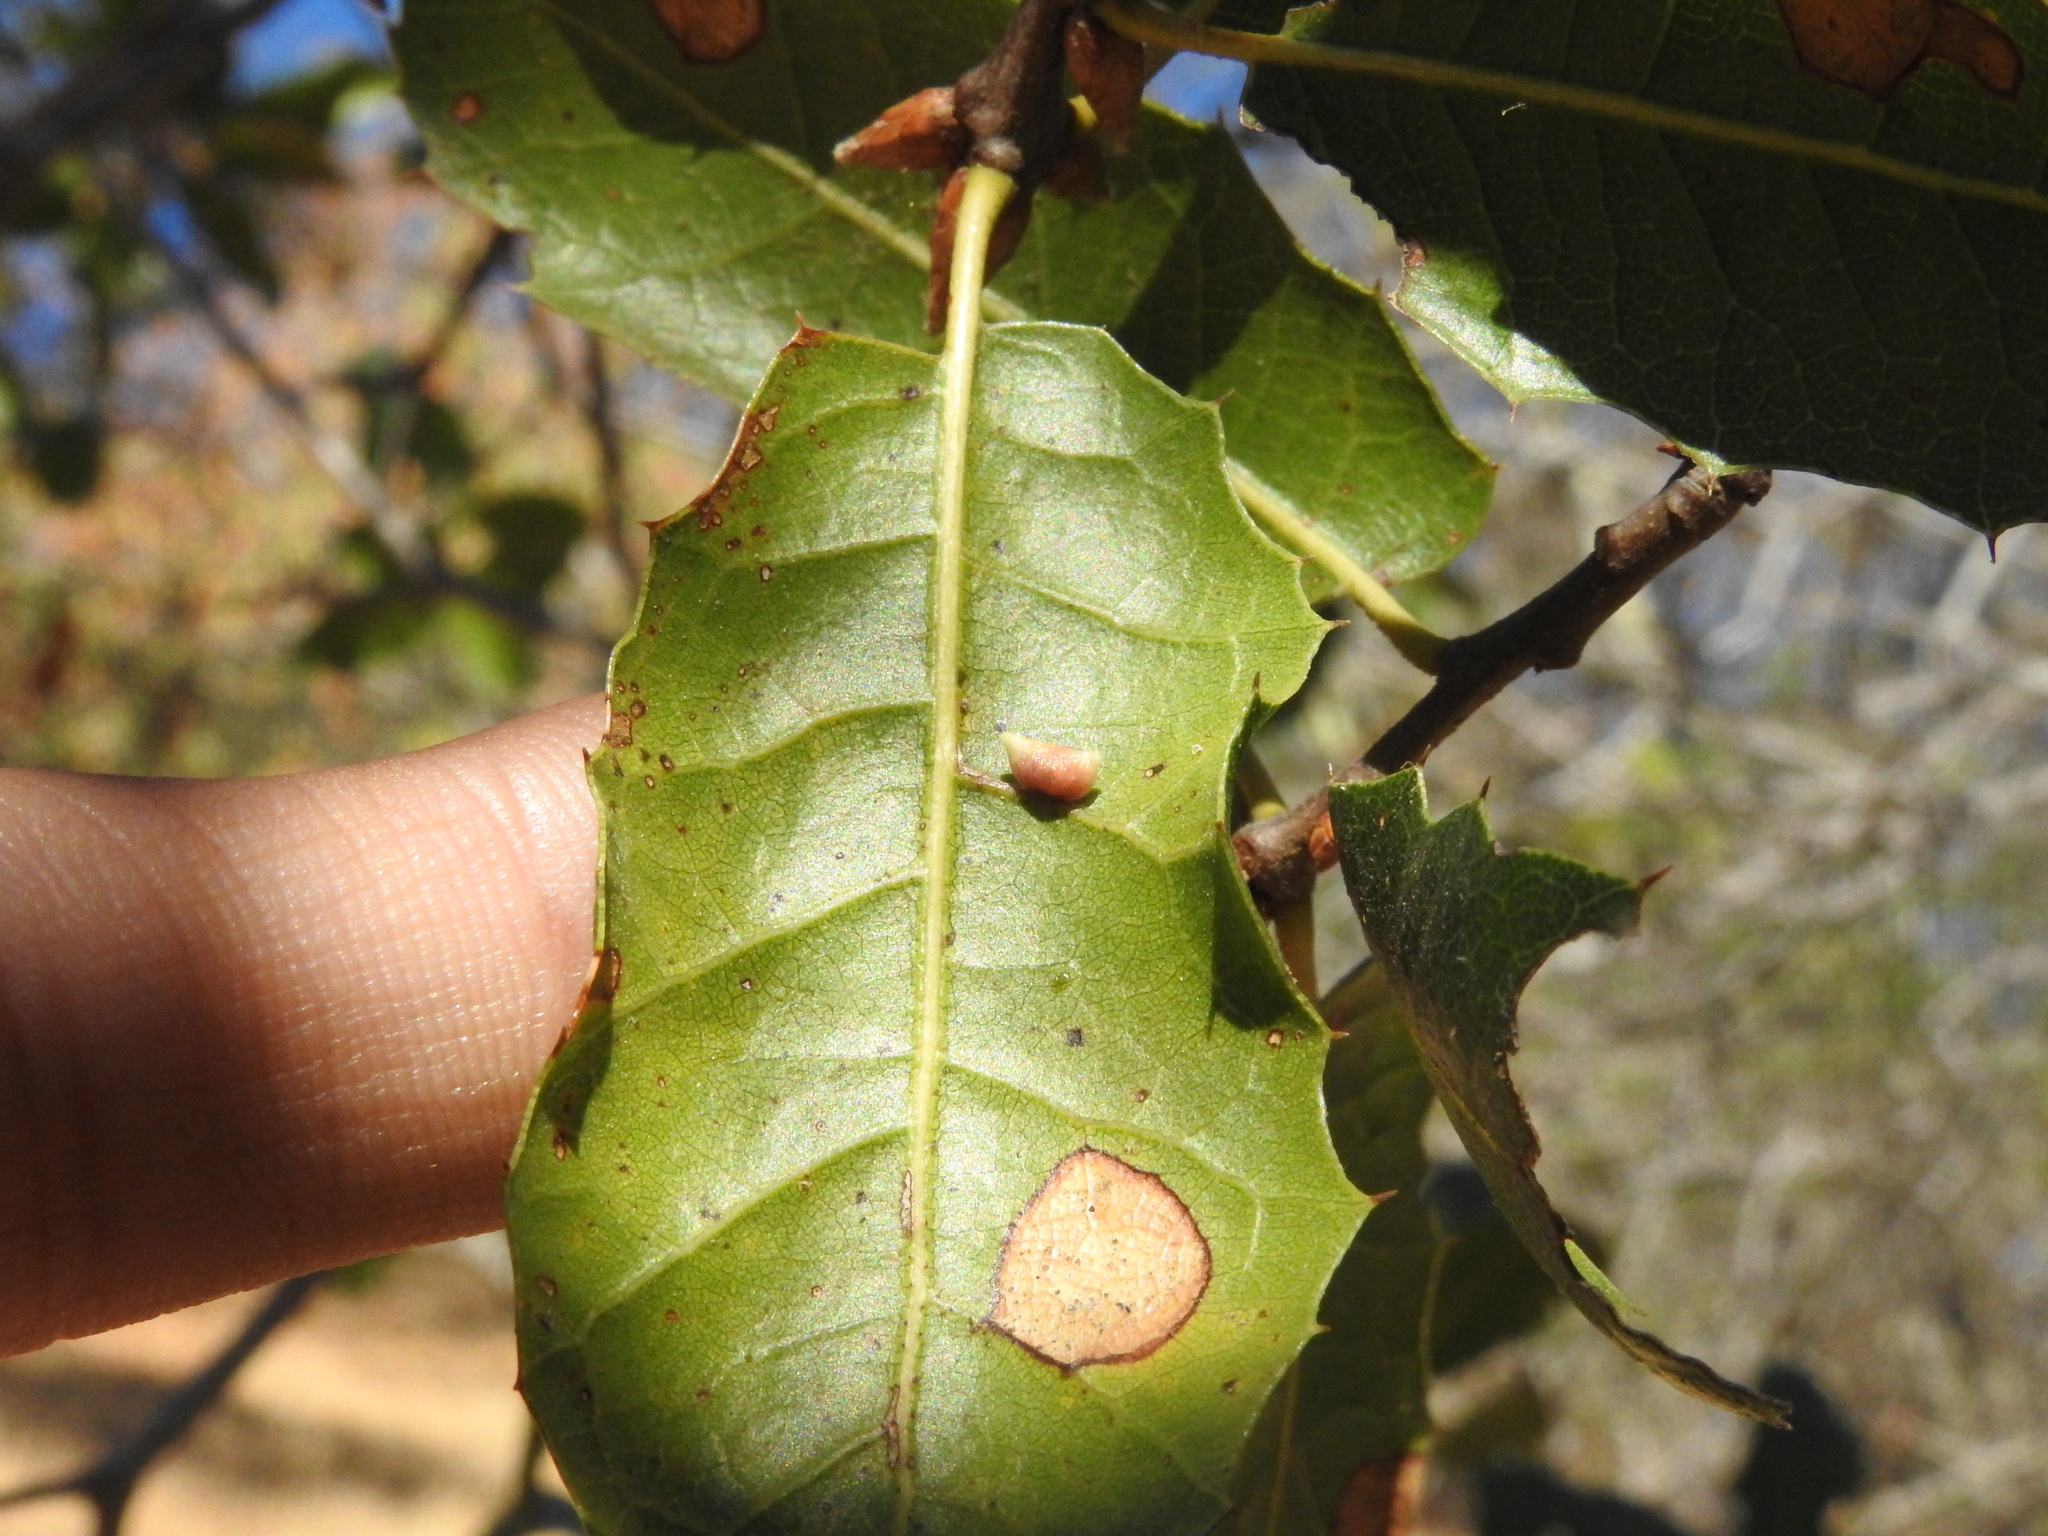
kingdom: Animalia
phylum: Arthropoda
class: Insecta
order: Hymenoptera
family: Cynipidae
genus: Dryocosmus
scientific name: Dryocosmus
